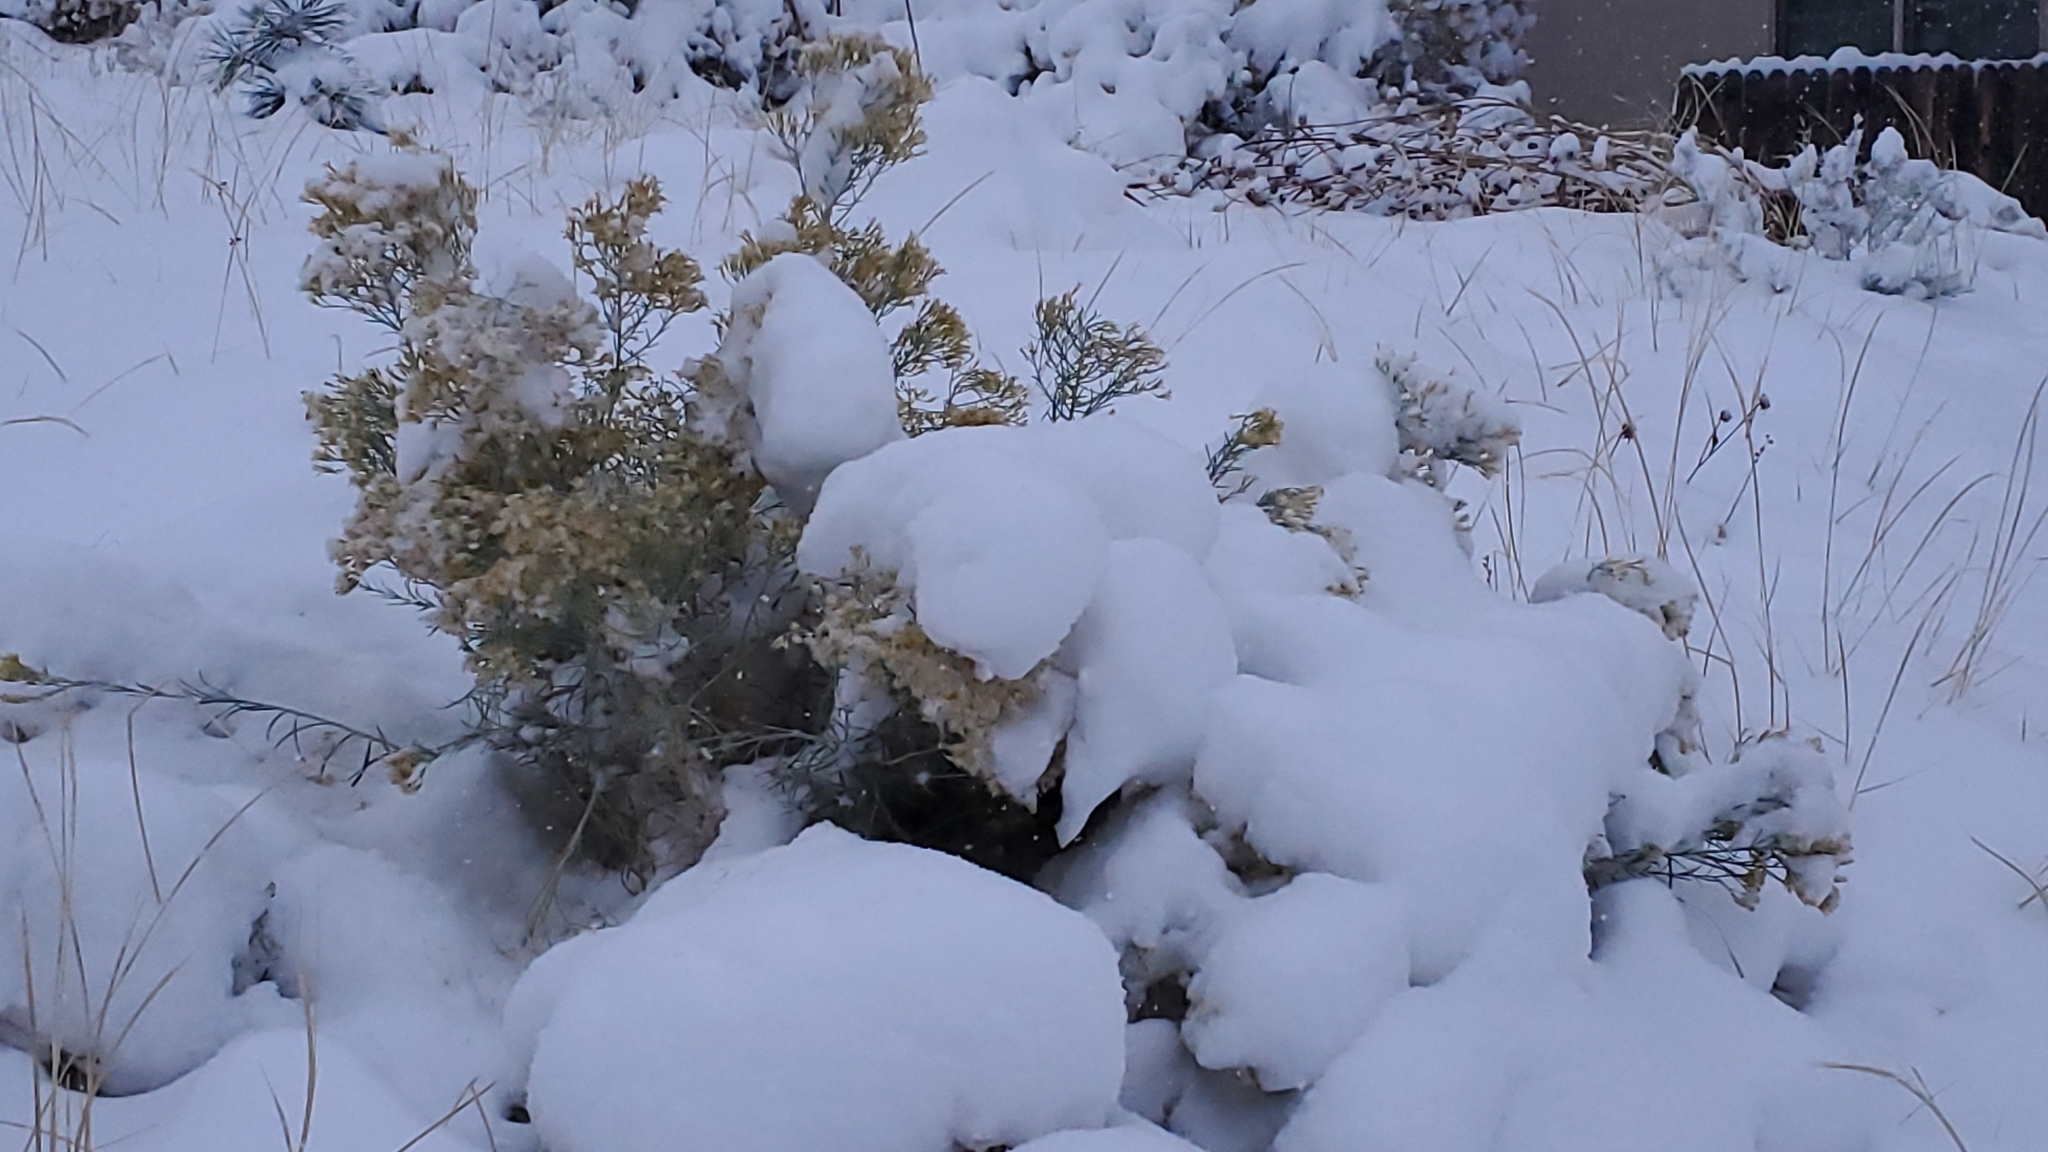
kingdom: Plantae
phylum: Tracheophyta
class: Magnoliopsida
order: Asterales
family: Asteraceae
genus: Ericameria
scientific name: Ericameria nauseosa
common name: Rubber rabbitbrush
